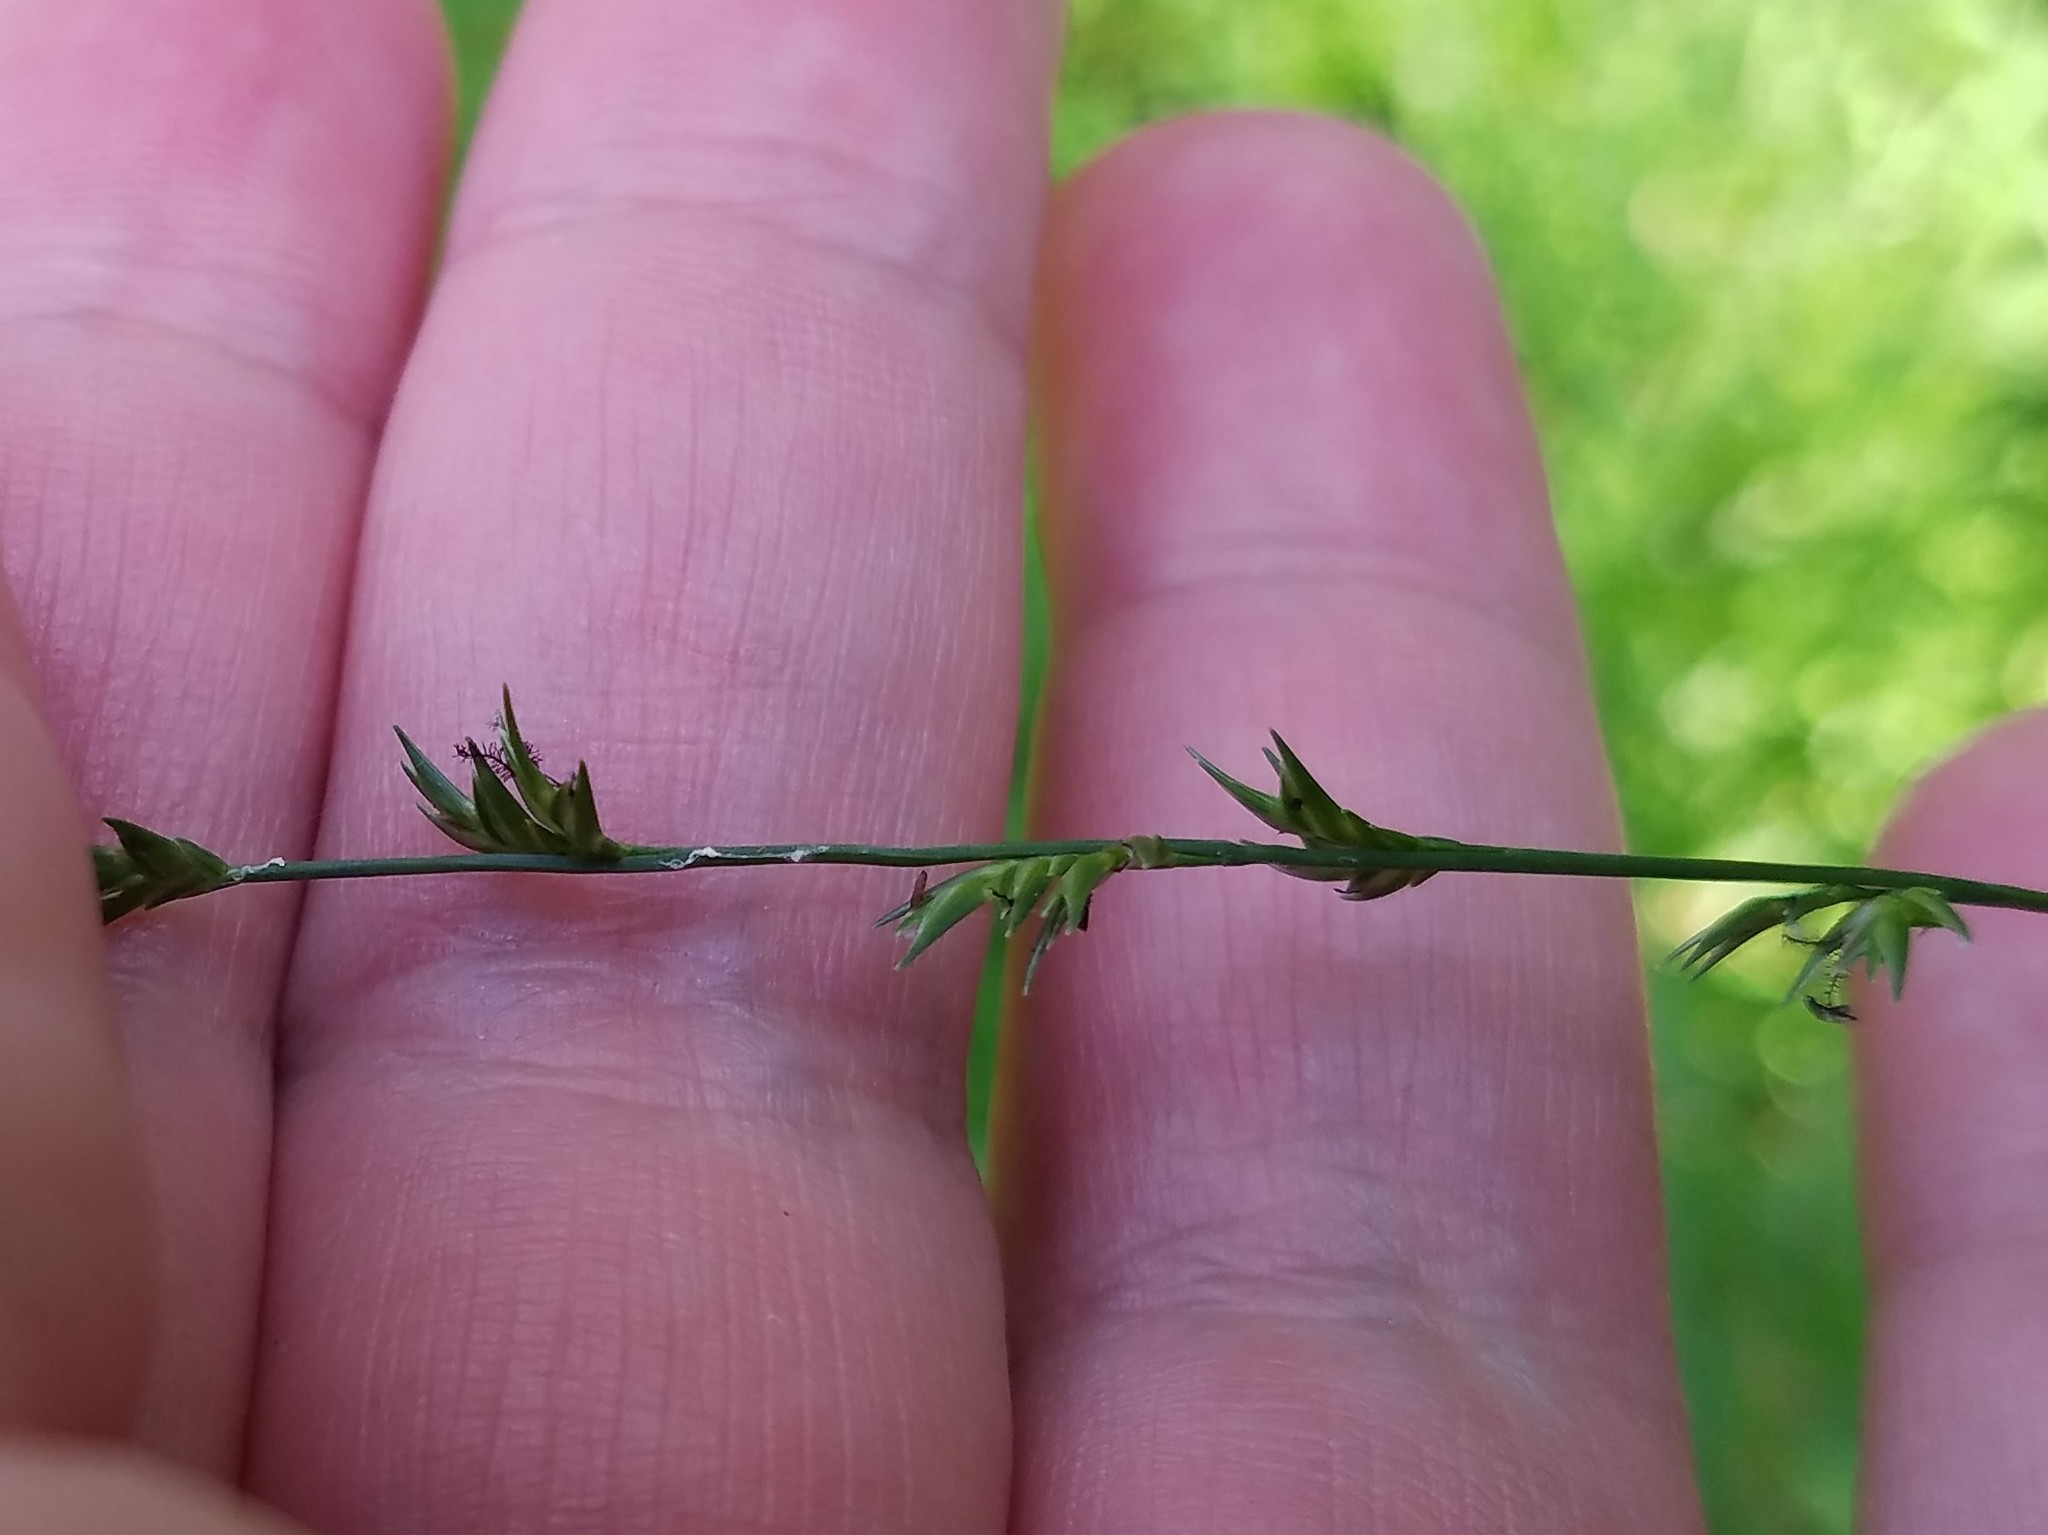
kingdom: Plantae
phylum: Tracheophyta
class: Liliopsida
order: Poales
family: Poaceae
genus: Chasmanthium
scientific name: Chasmanthium laxum
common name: Slender chasmanthium
